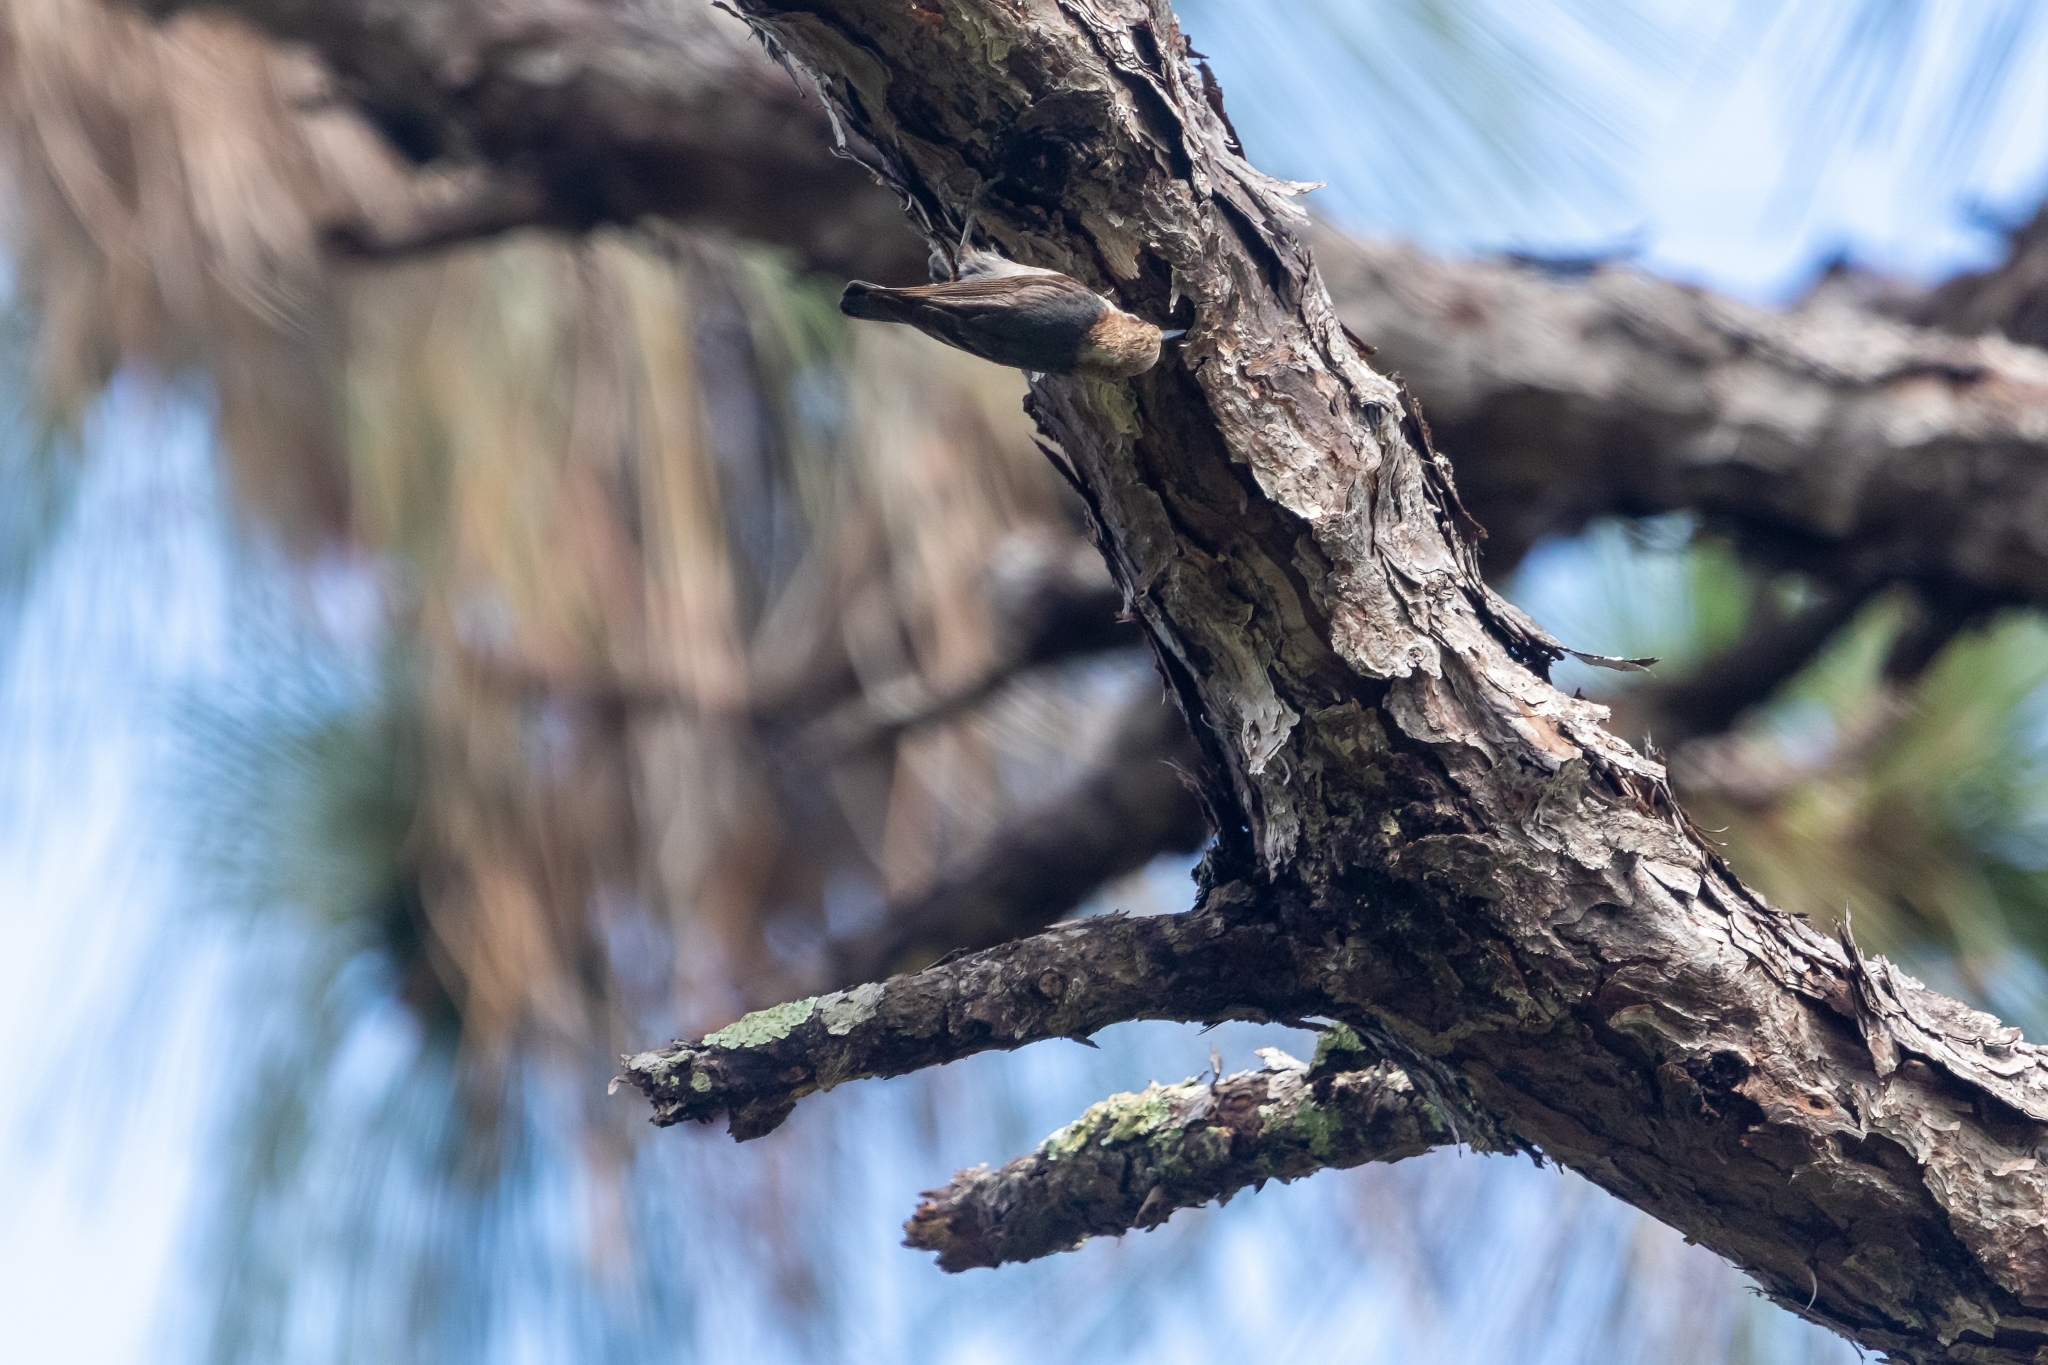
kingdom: Animalia
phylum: Chordata
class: Aves
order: Passeriformes
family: Sittidae
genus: Sitta
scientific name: Sitta pusilla
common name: Brown-headed nuthatch
